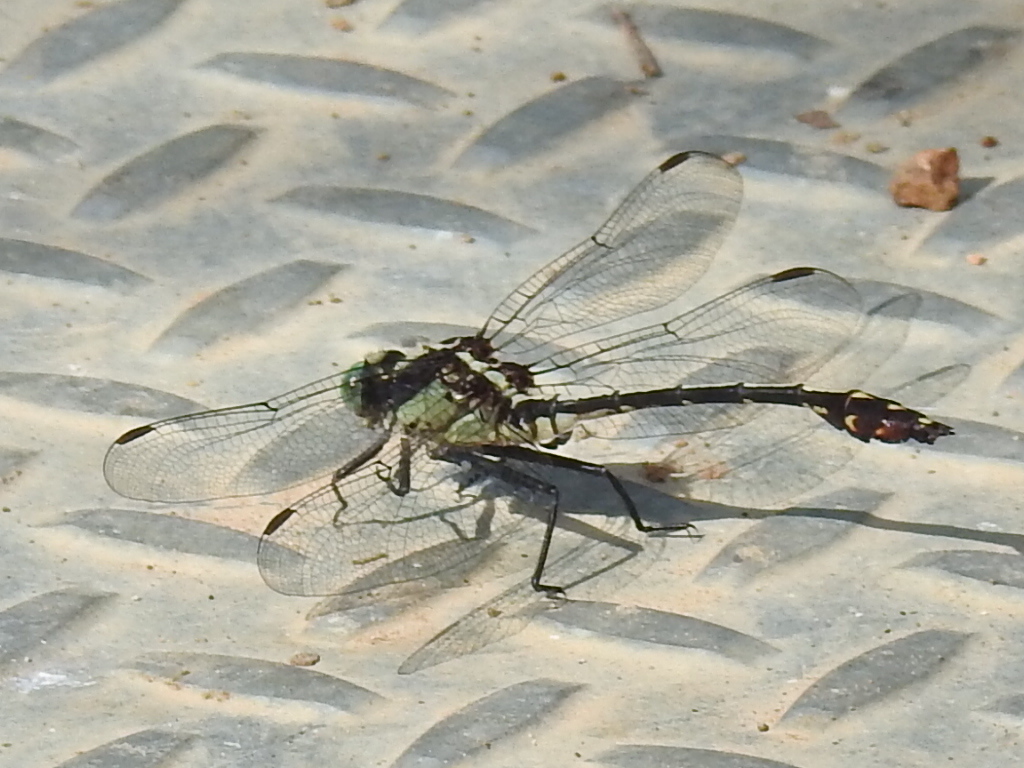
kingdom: Animalia
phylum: Arthropoda
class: Insecta
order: Odonata
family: Gomphidae
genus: Dromogomphus
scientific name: Dromogomphus spinosus
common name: Black-shouldered spinyleg
